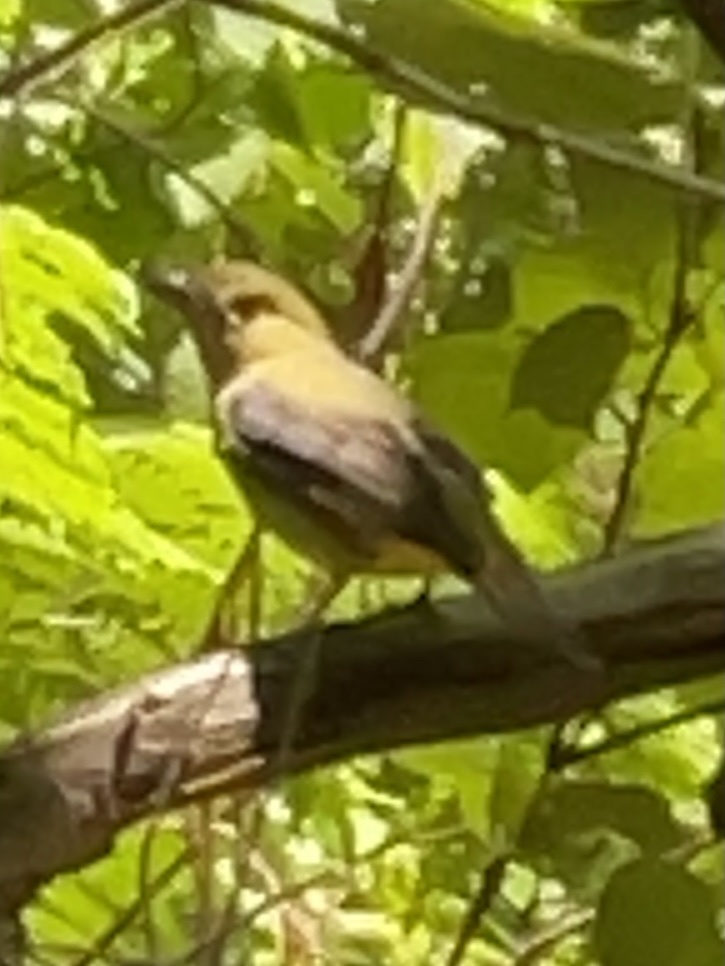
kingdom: Animalia
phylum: Chordata
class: Aves
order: Passeriformes
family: Cardinalidae
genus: Piranga
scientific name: Piranga olivacea
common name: Scarlet tanager
